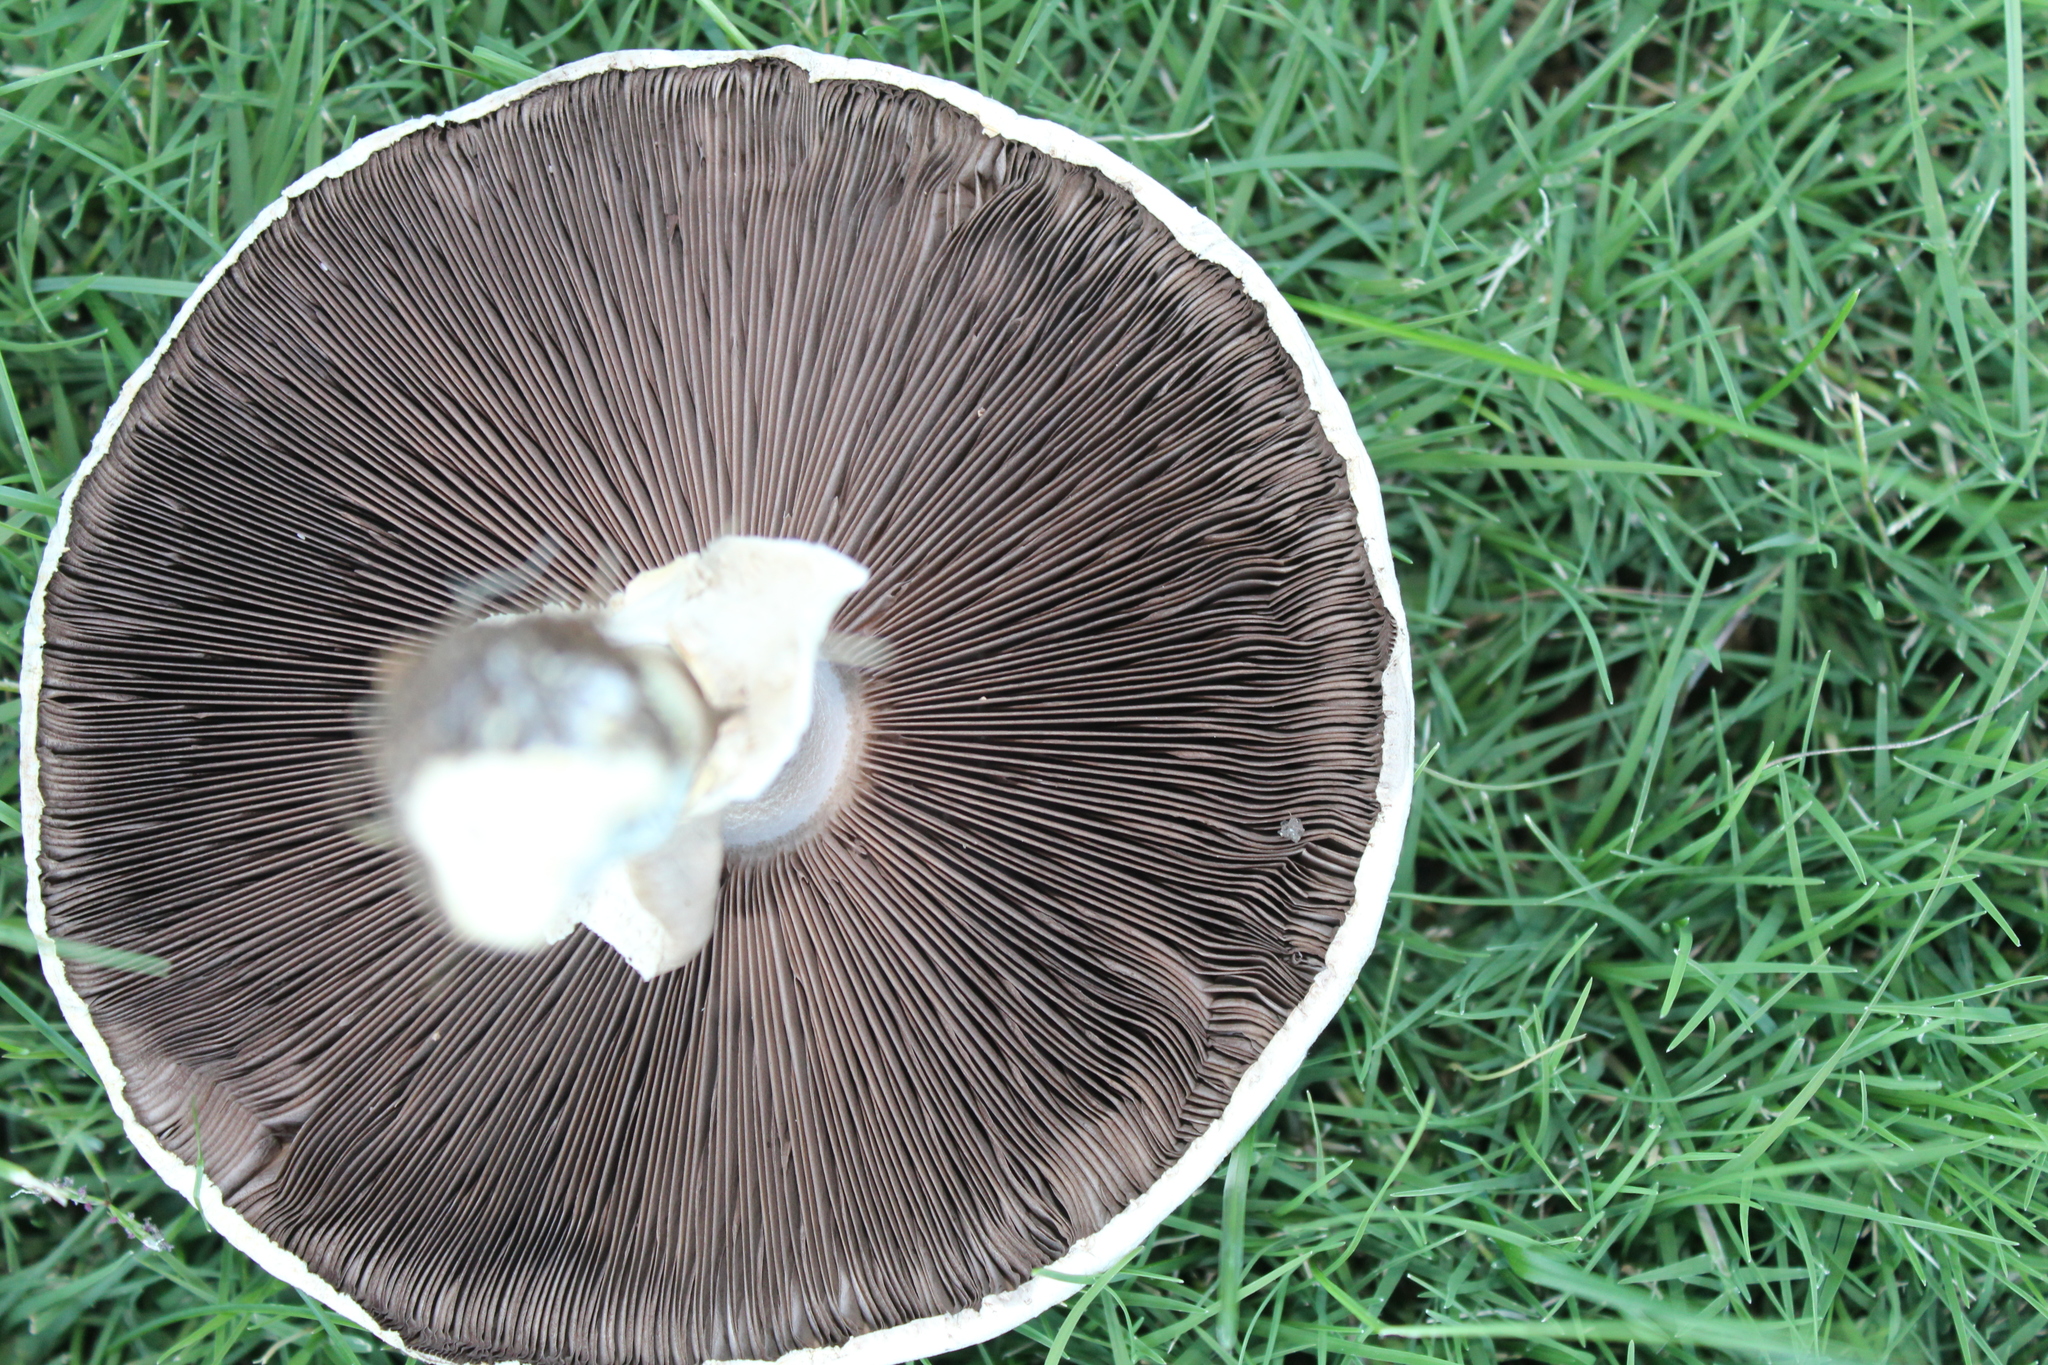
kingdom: Fungi
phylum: Basidiomycota
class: Agaricomycetes
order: Agaricales
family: Agaricaceae
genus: Agaricus
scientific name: Agaricus xanthodermus
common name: Yellow stainer
